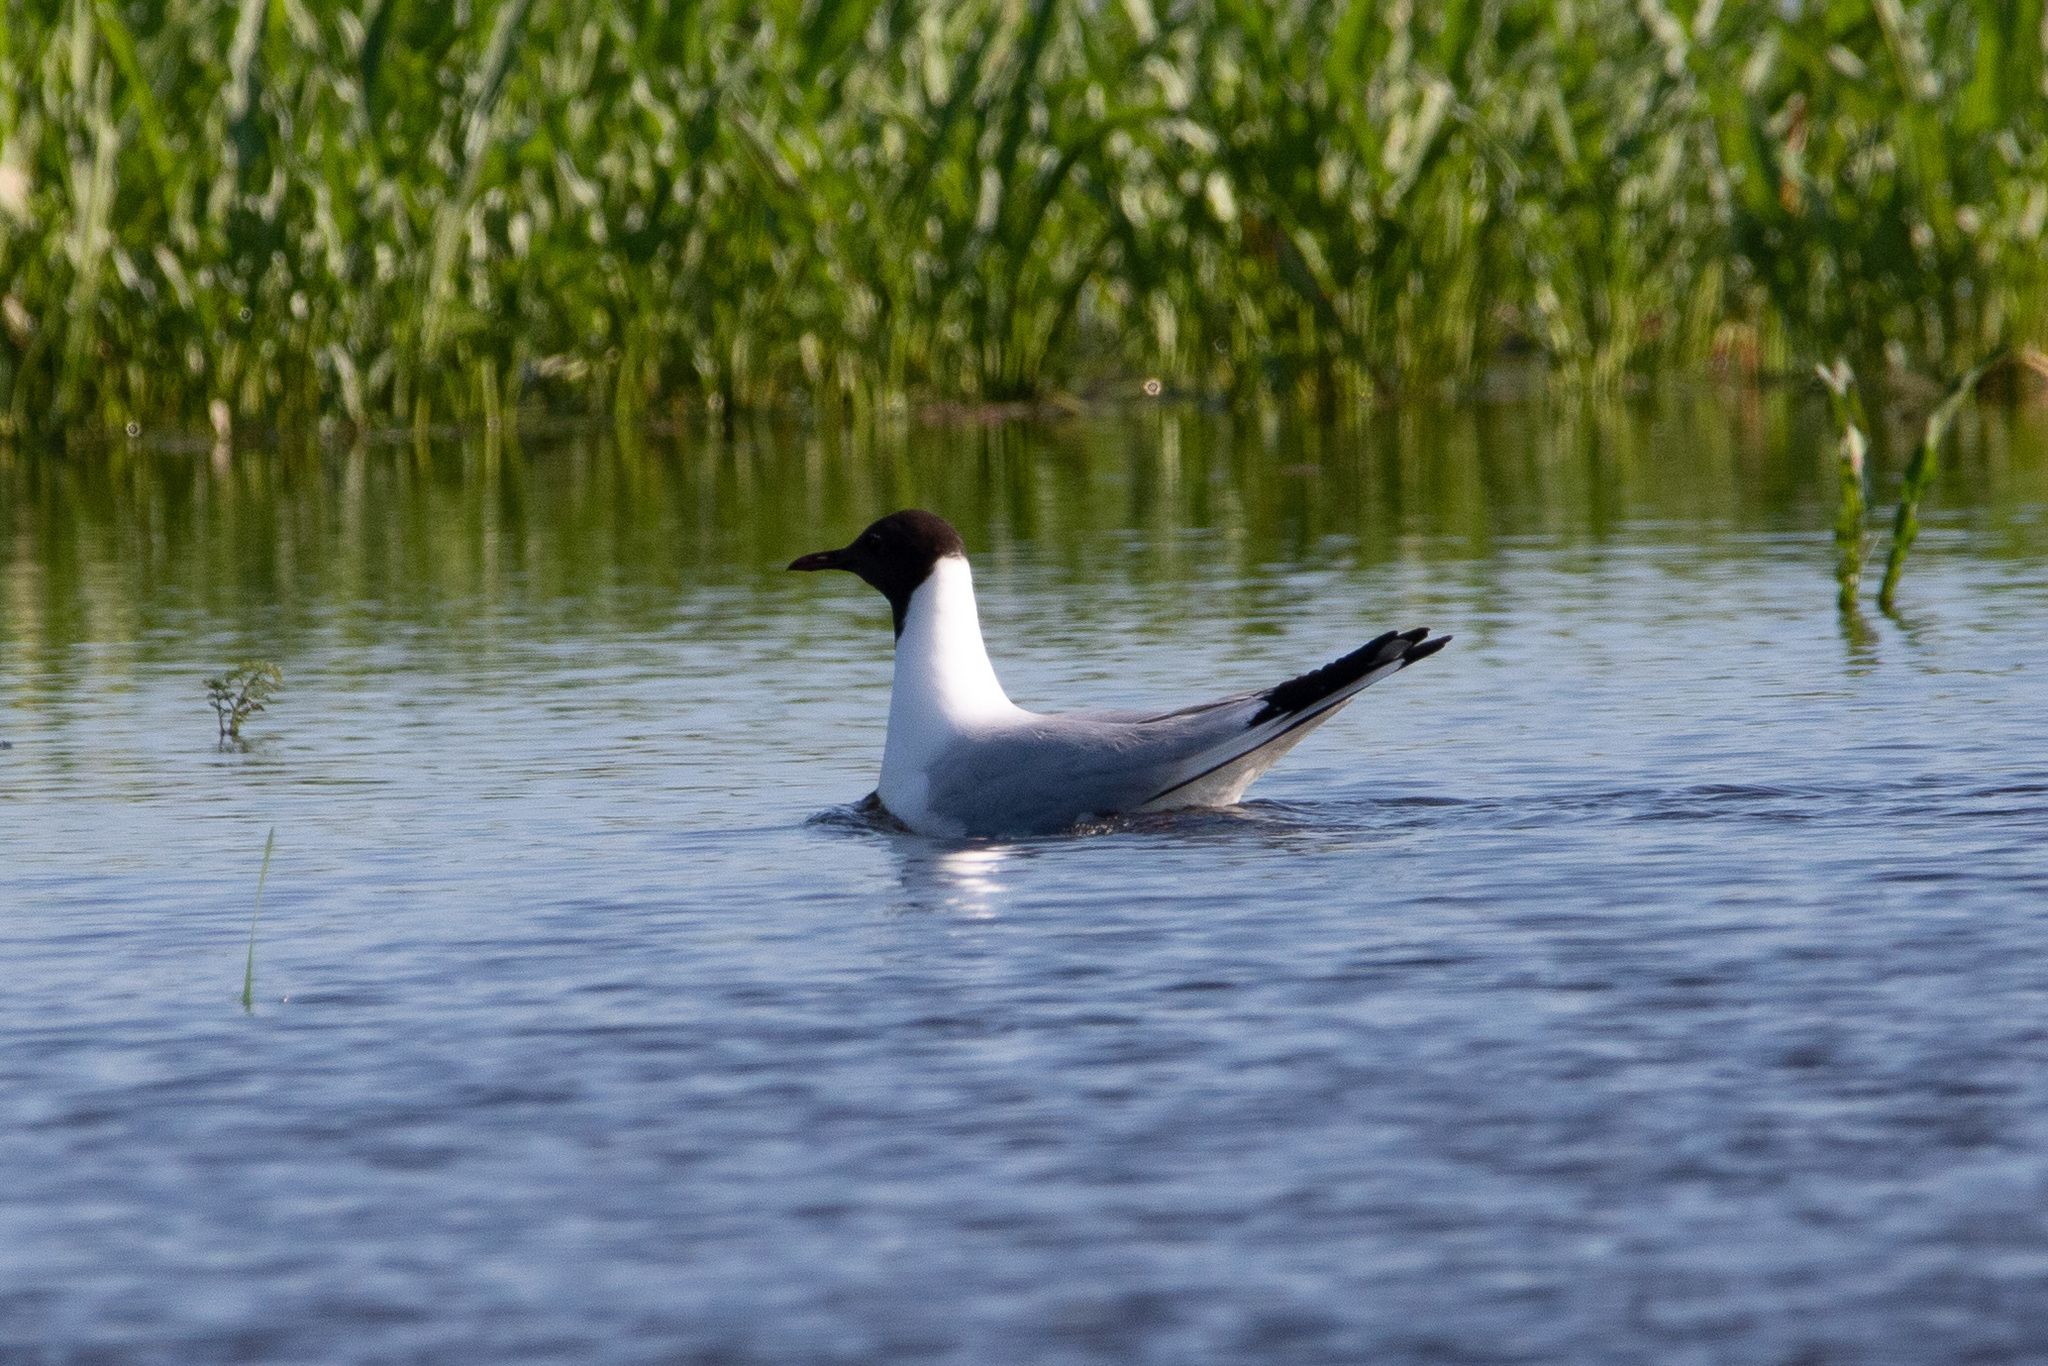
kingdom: Animalia
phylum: Chordata
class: Aves
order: Charadriiformes
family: Laridae
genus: Chroicocephalus
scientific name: Chroicocephalus ridibundus
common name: Black-headed gull
